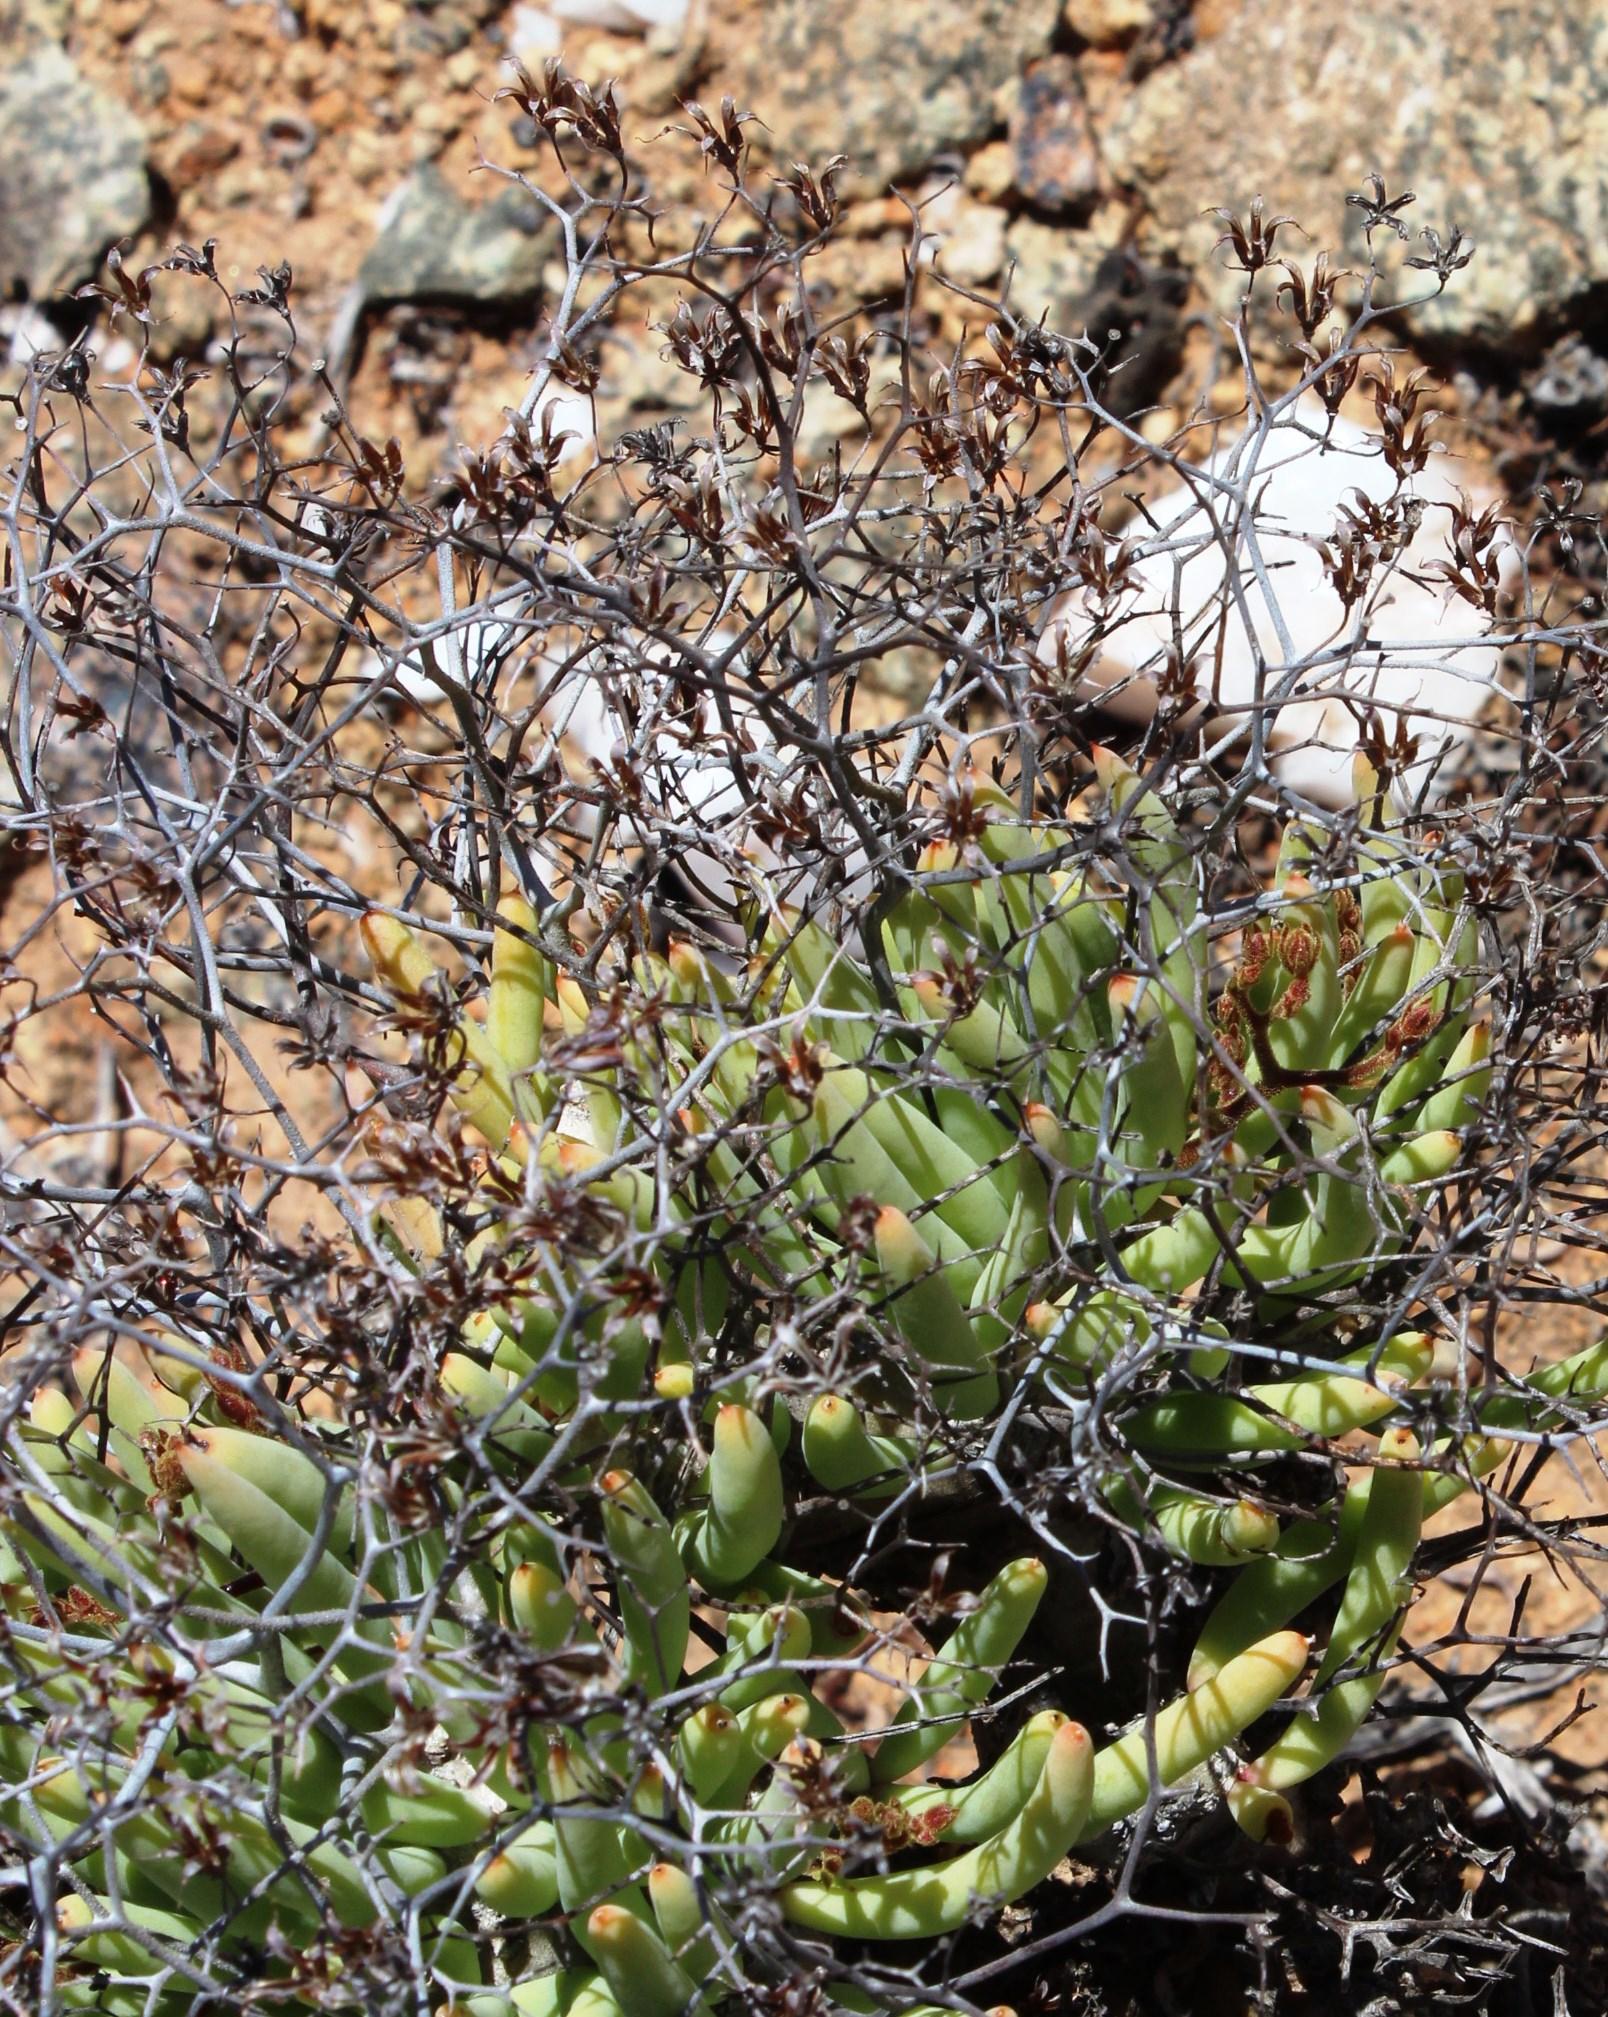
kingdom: Plantae
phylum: Tracheophyta
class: Magnoliopsida
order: Saxifragales
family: Crassulaceae
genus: Tylecodon
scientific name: Tylecodon reticulatus
